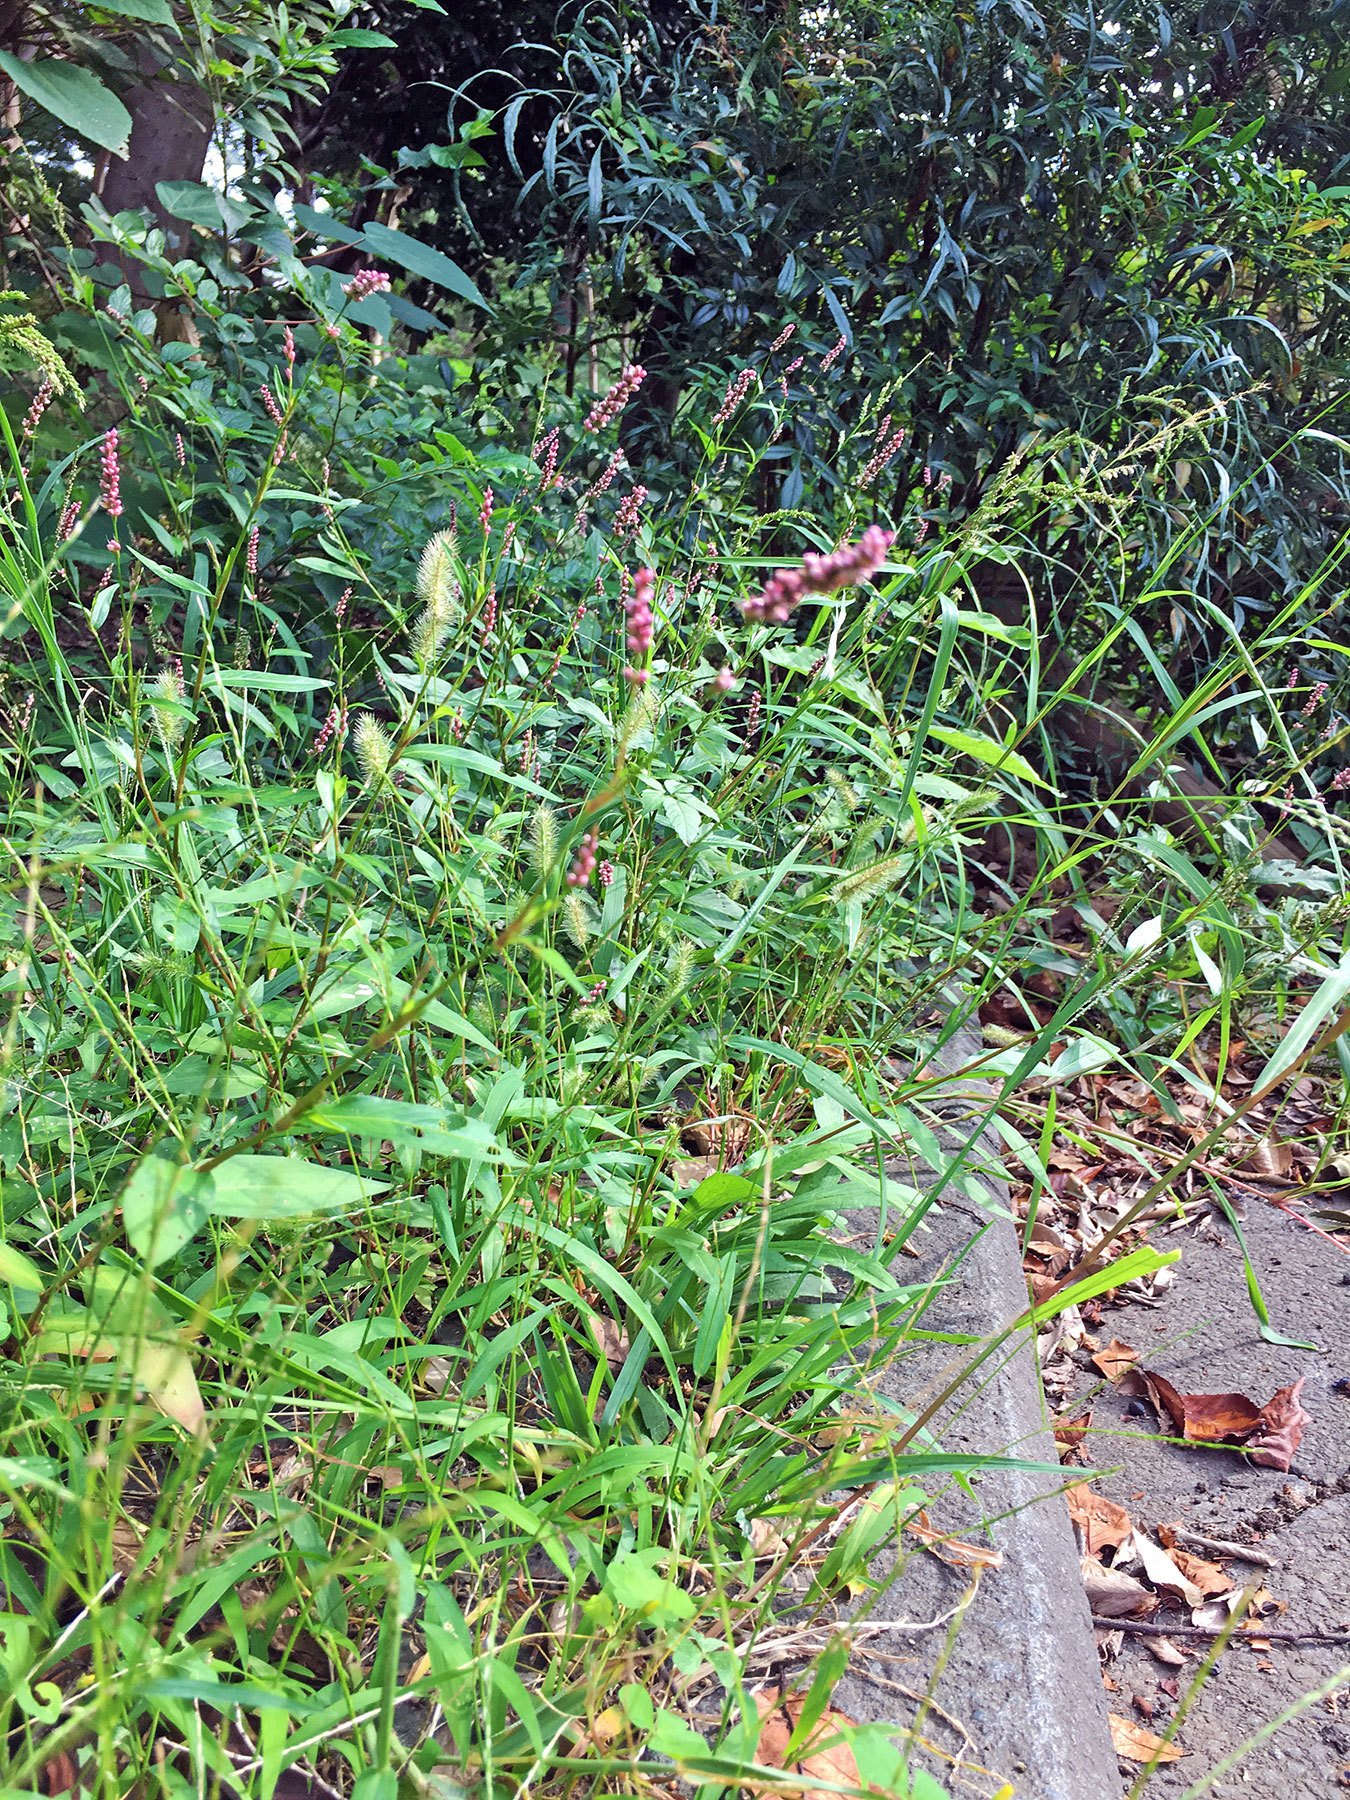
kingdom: Plantae
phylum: Tracheophyta
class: Magnoliopsida
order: Caryophyllales
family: Polygonaceae
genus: Persicaria
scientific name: Persicaria longiseta
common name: Bristly lady's-thumb
